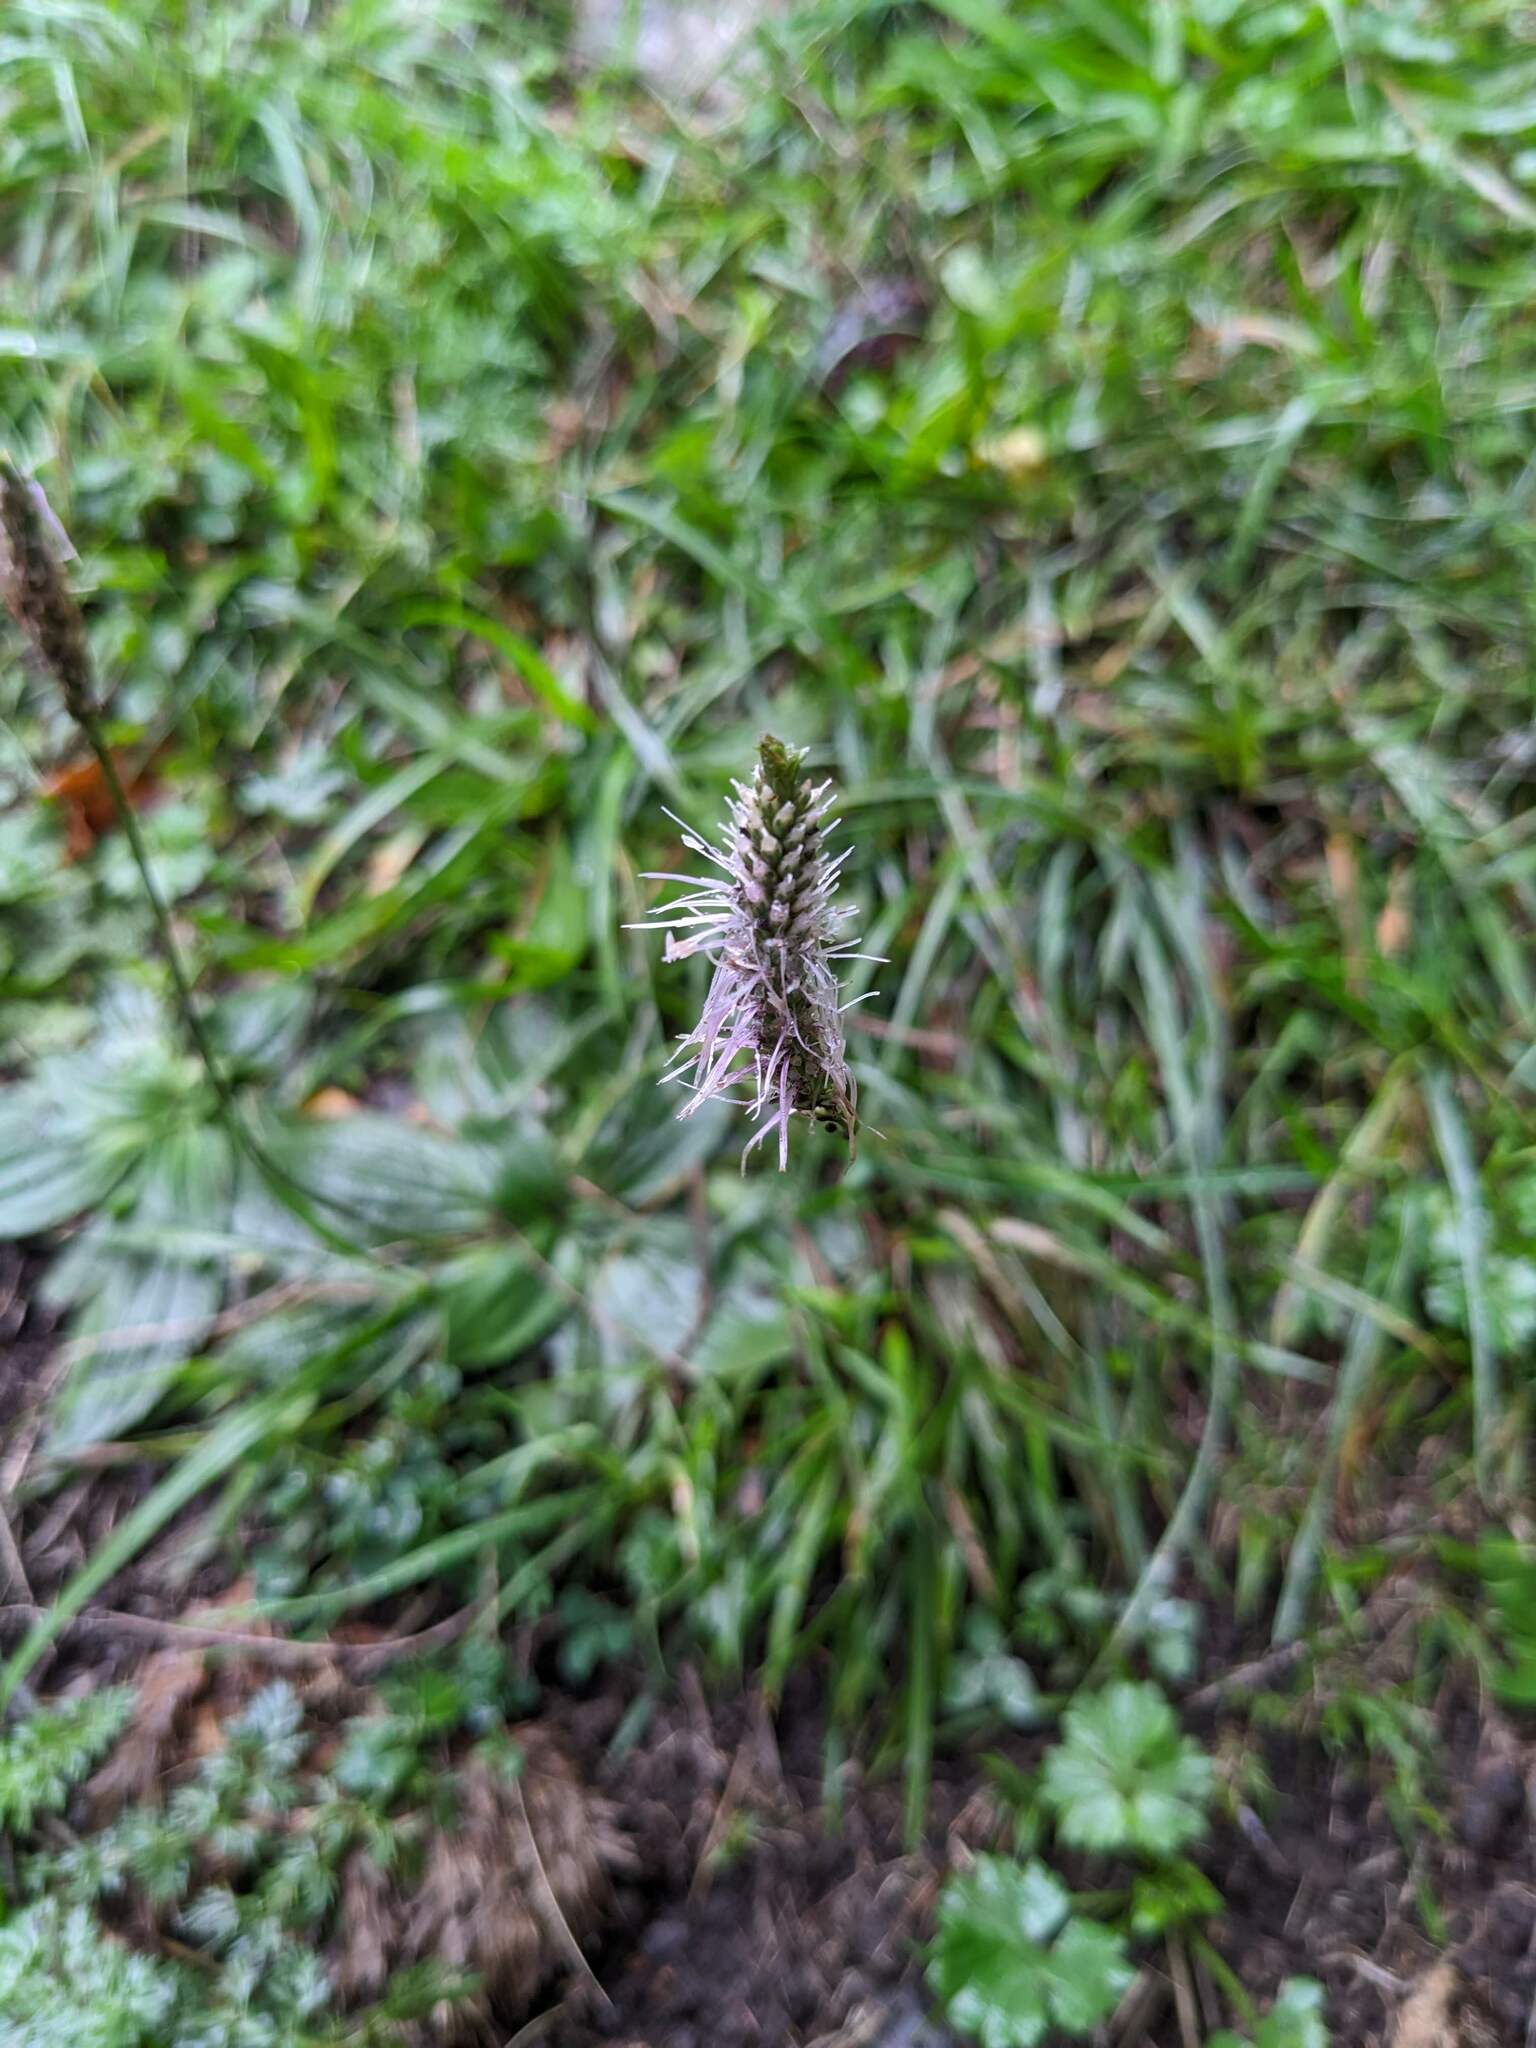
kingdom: Plantae
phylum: Tracheophyta
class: Magnoliopsida
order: Lamiales
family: Plantaginaceae
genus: Plantago
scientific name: Plantago media
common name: Hoary plantain
